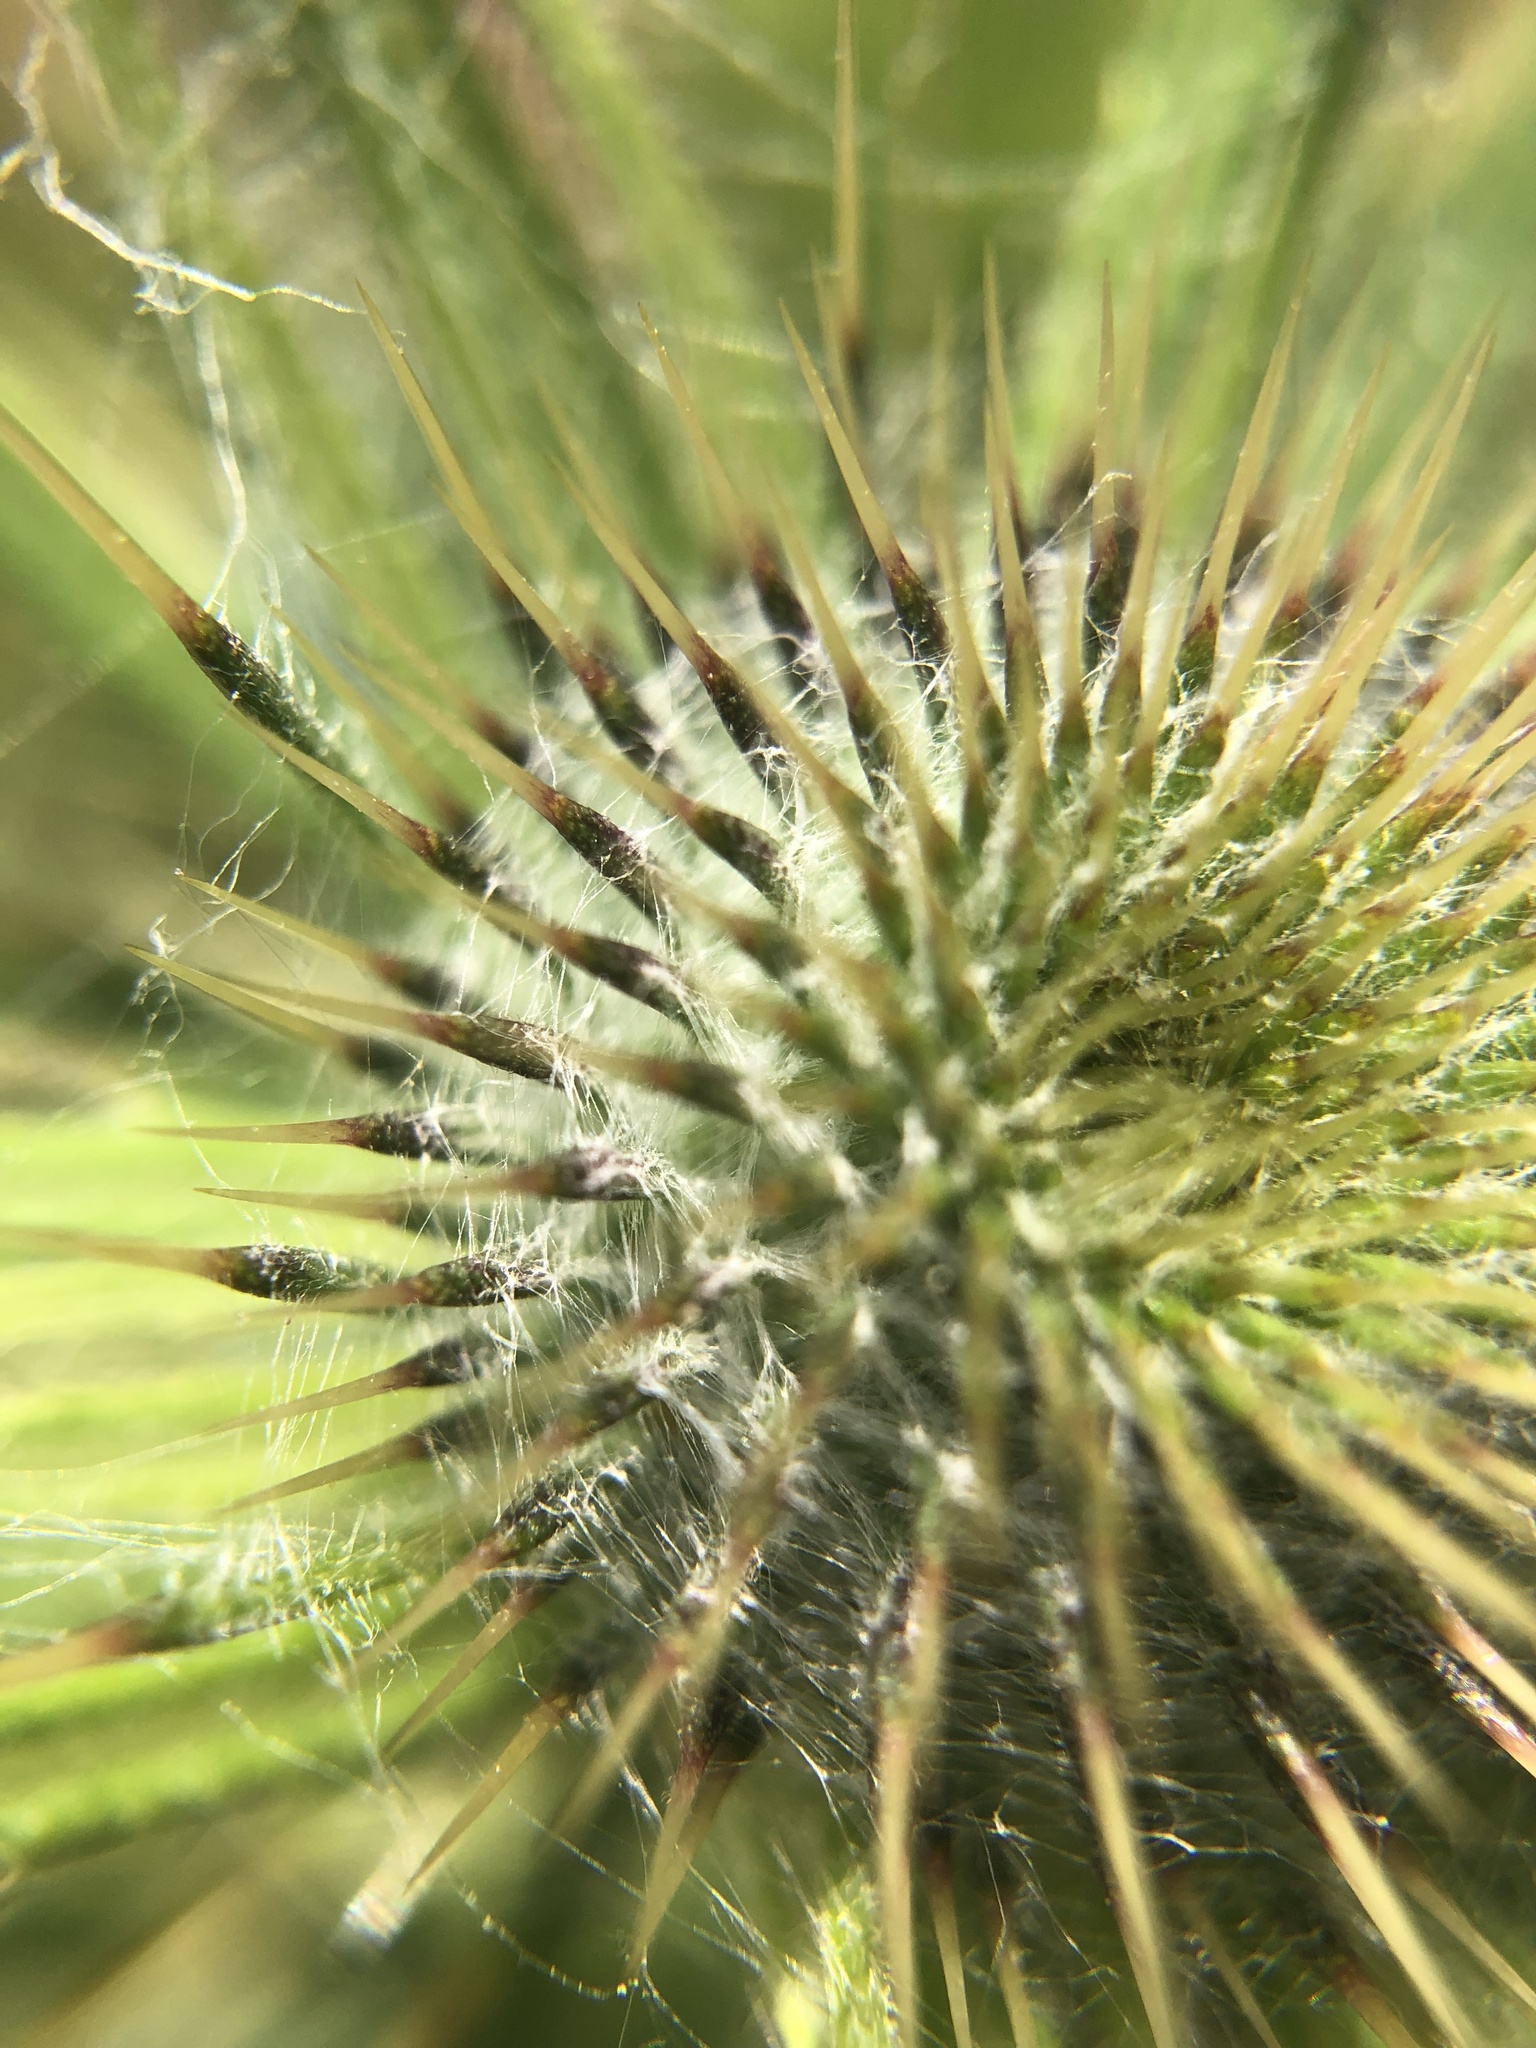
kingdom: Plantae
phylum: Tracheophyta
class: Magnoliopsida
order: Asterales
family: Asteraceae
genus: Cirsium
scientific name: Cirsium vulgare
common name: Bull thistle
